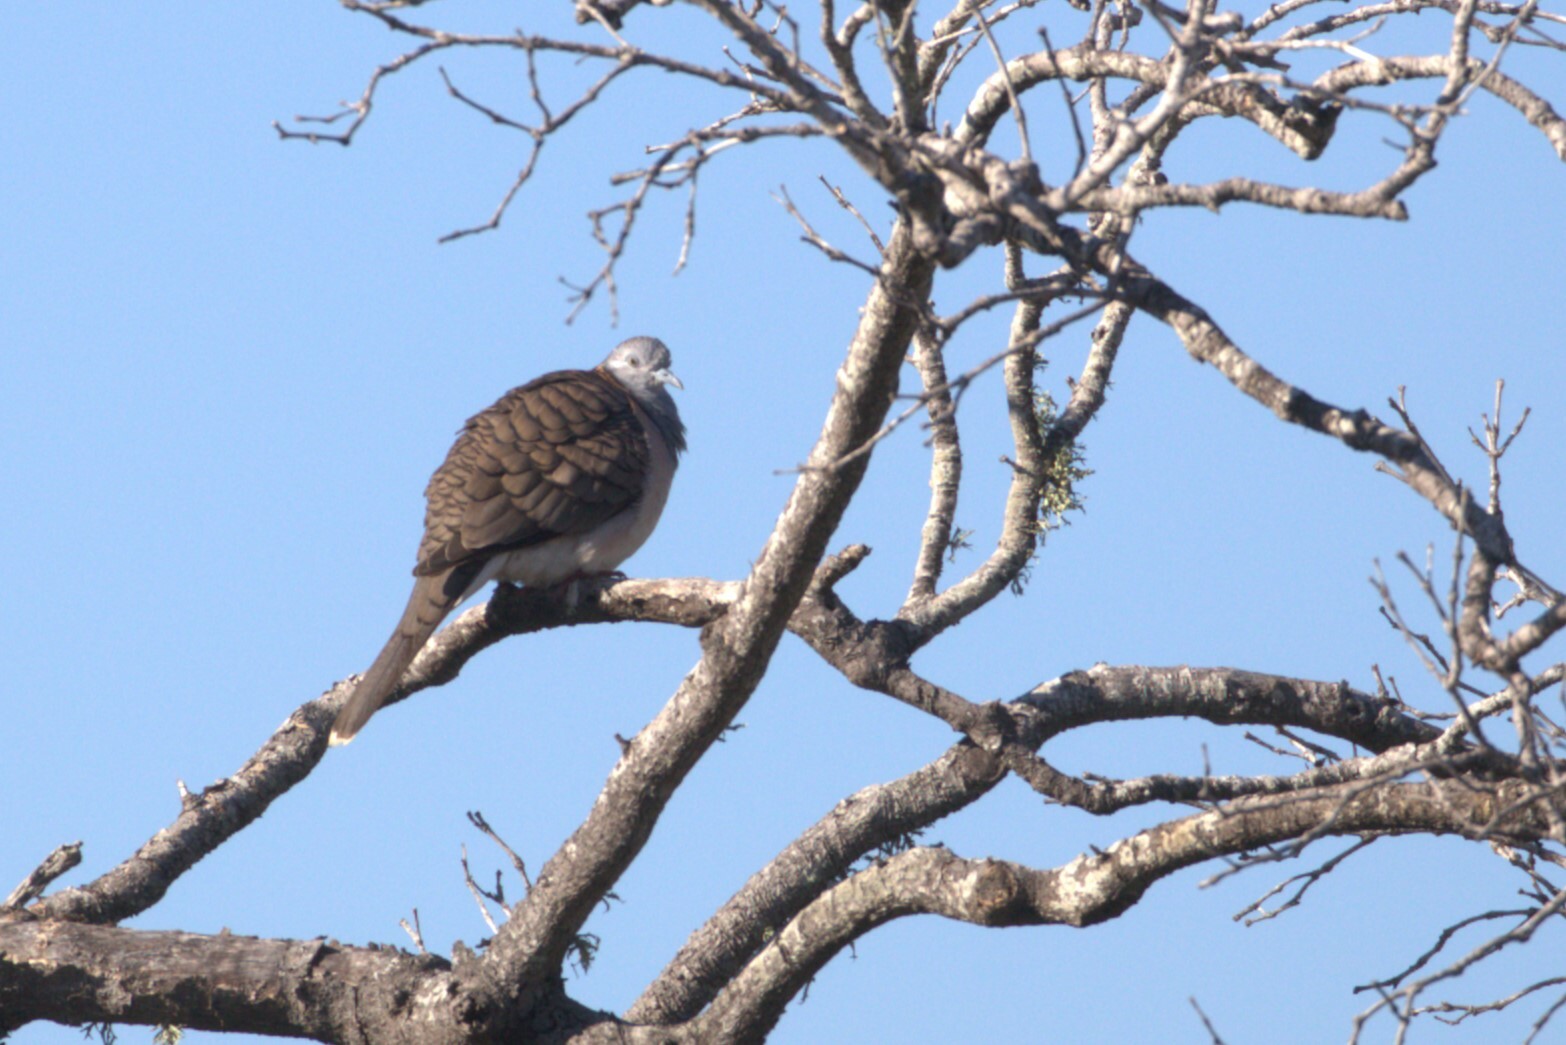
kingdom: Animalia
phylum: Chordata
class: Aves
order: Columbiformes
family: Columbidae
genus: Geopelia
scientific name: Geopelia humeralis
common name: Bar-shouldered dove
